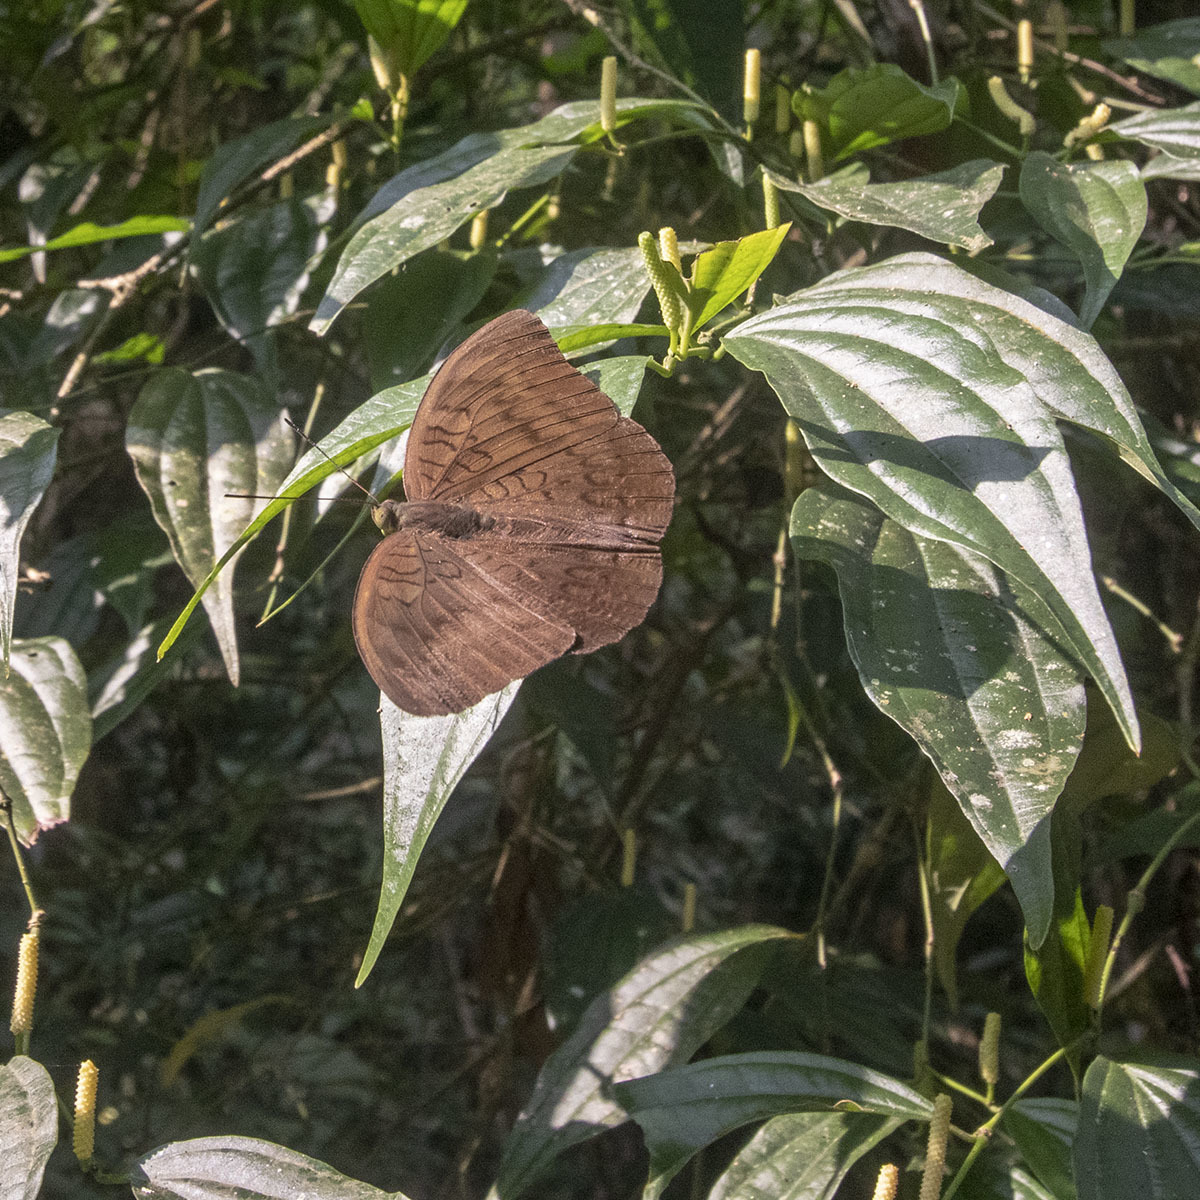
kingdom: Animalia
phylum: Arthropoda
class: Insecta
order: Lepidoptera
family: Nymphalidae
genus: Tanaecia
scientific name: Tanaecia julii
